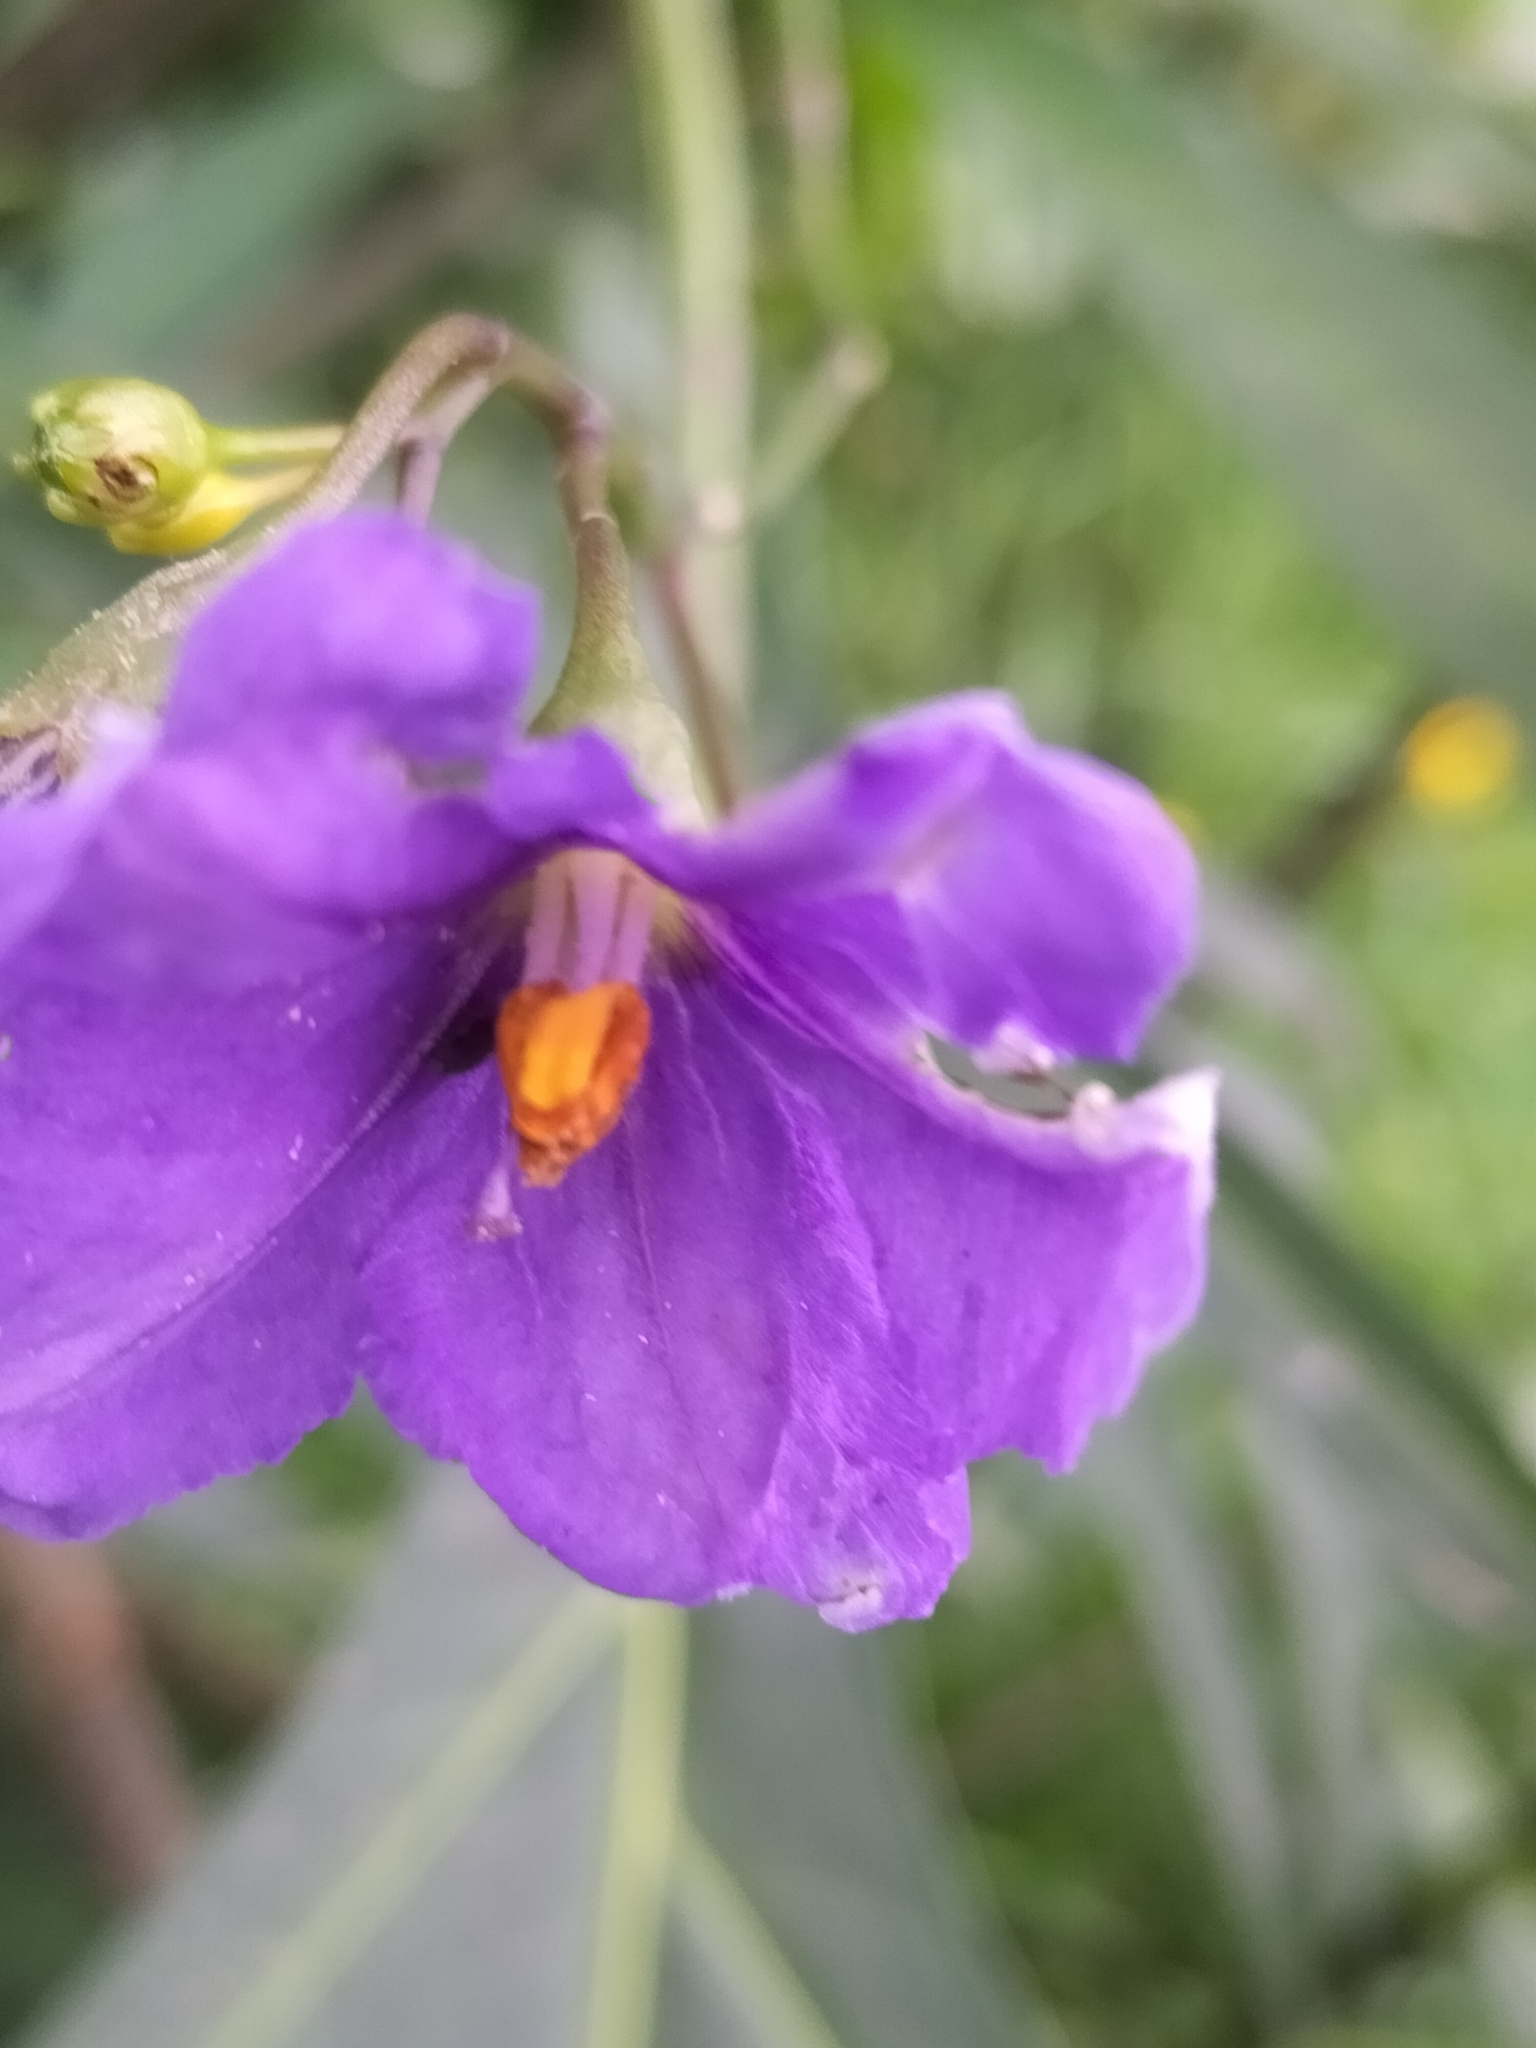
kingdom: Plantae
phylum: Tracheophyta
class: Magnoliopsida
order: Solanales
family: Solanaceae
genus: Solanum
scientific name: Solanum laciniatum
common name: Kangaroo-apple
